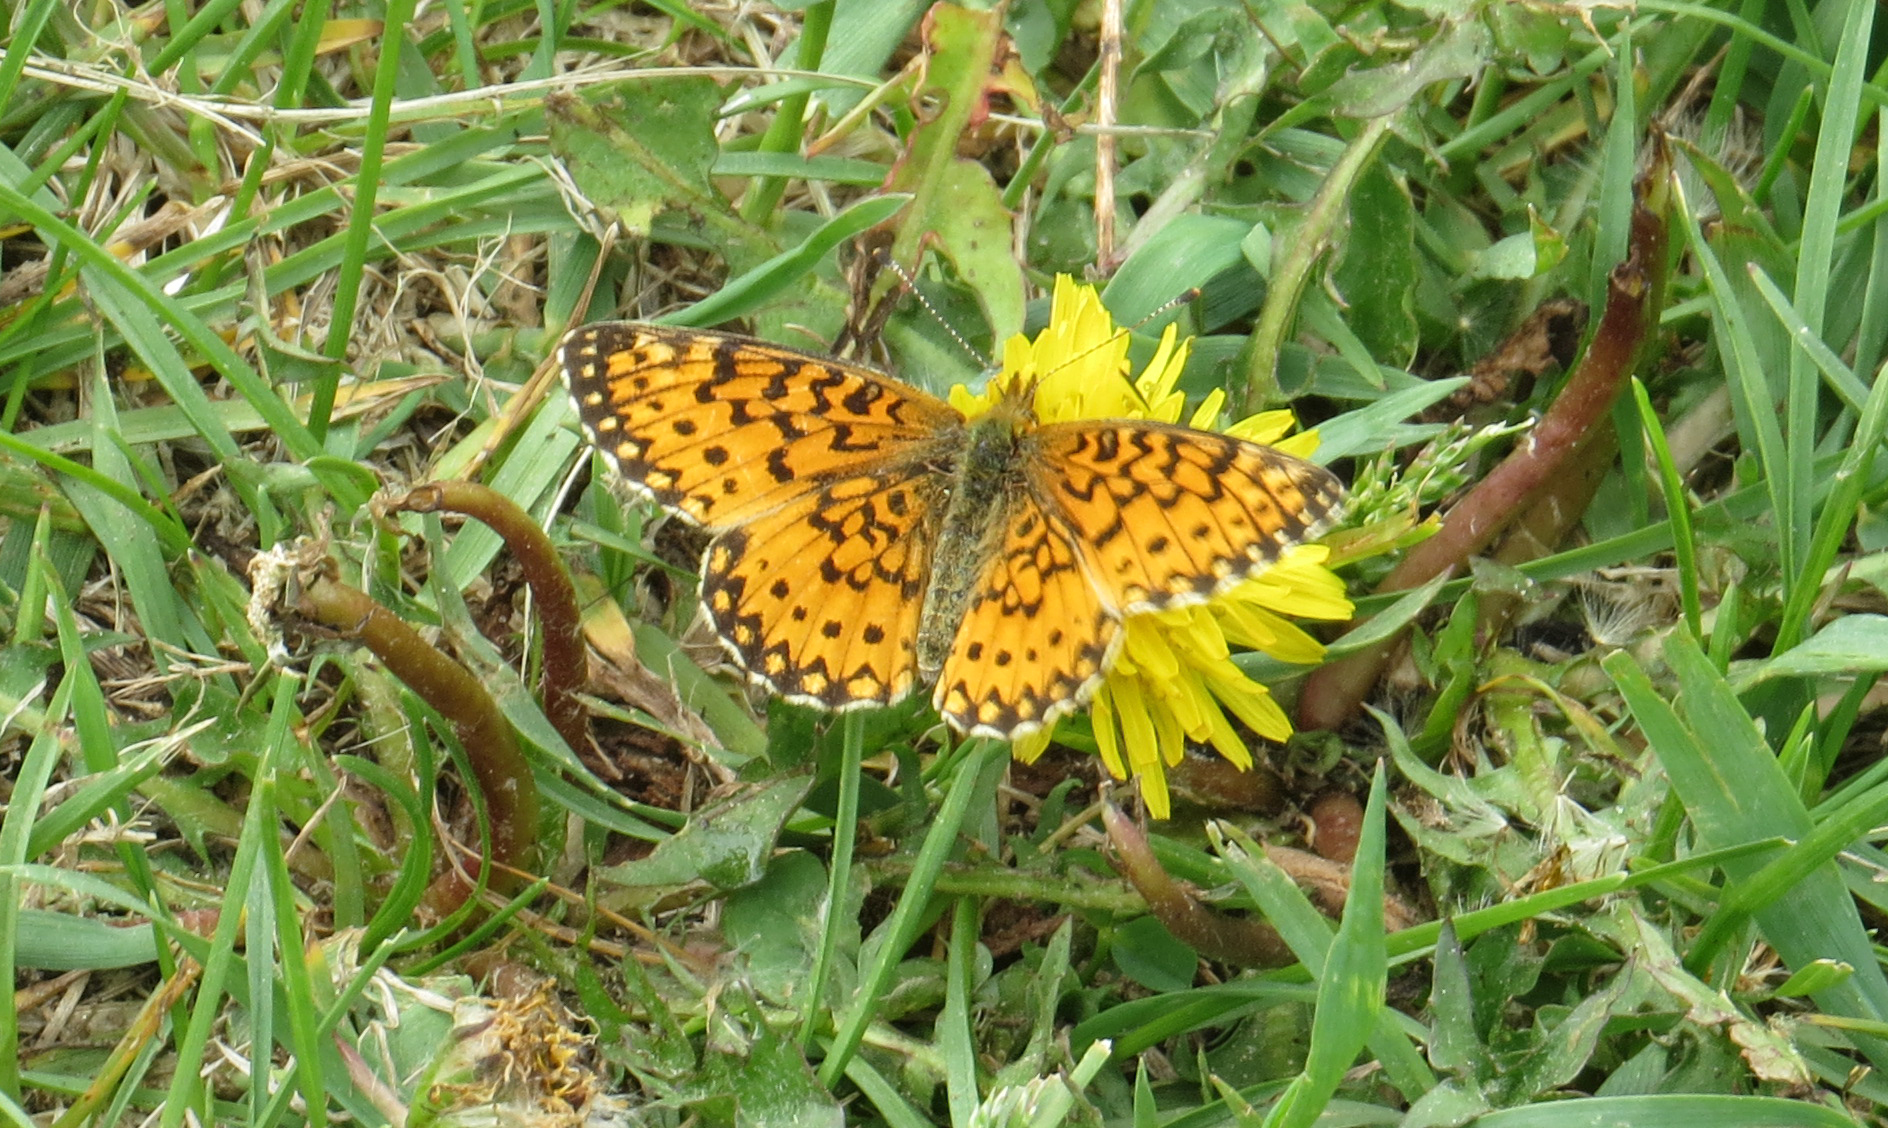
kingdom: Animalia
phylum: Arthropoda
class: Insecta
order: Lepidoptera
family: Nymphalidae
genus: Boloria
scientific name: Boloria
